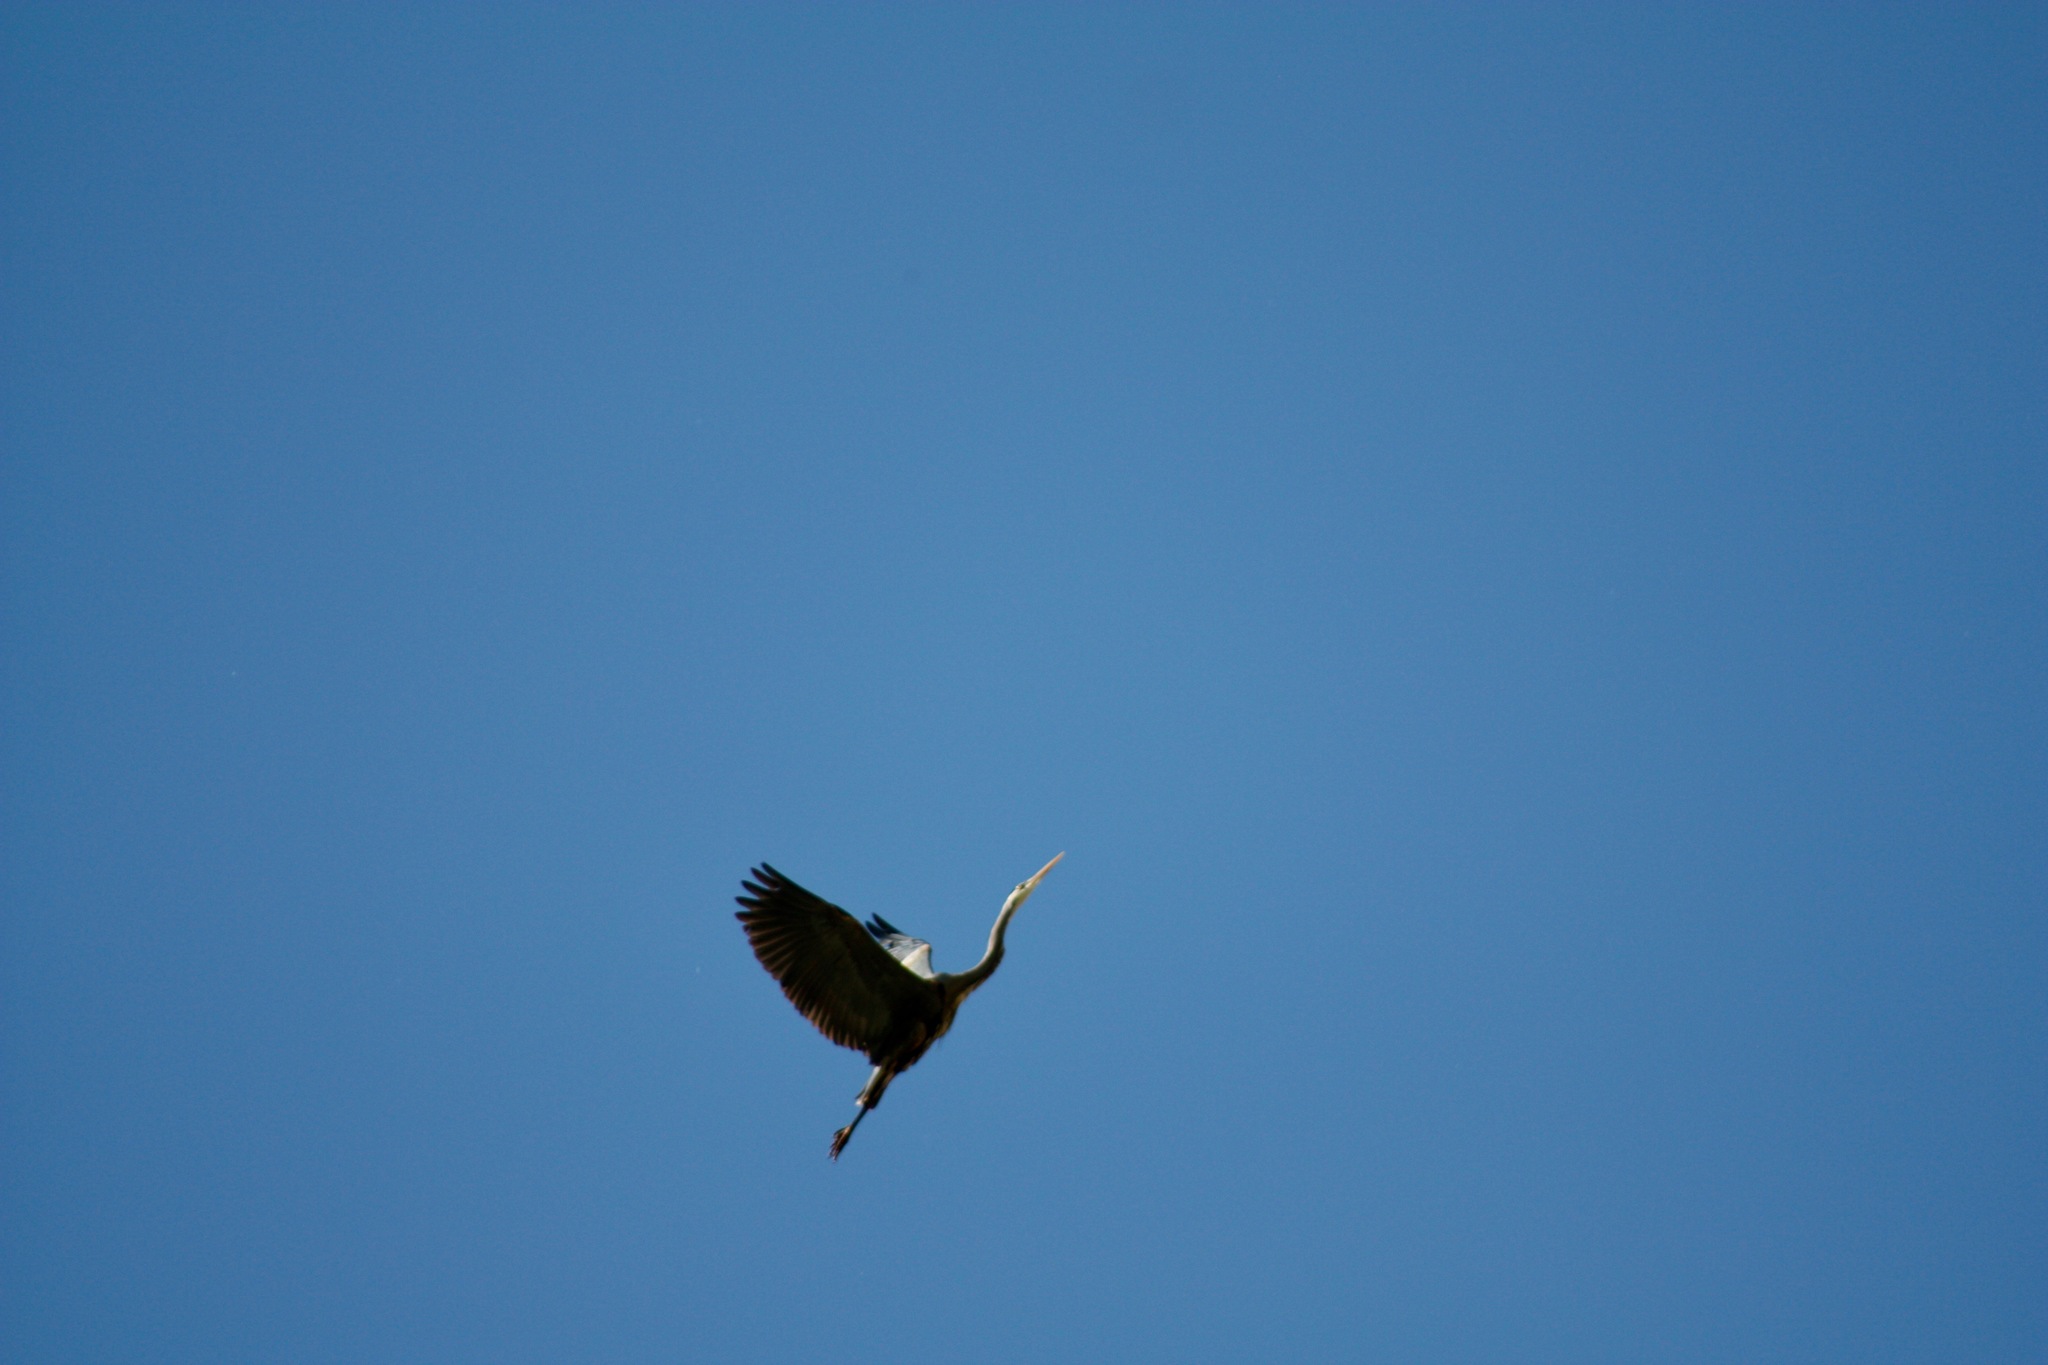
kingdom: Animalia
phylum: Chordata
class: Aves
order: Pelecaniformes
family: Ardeidae
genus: Ardea
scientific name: Ardea herodias
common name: Great blue heron
